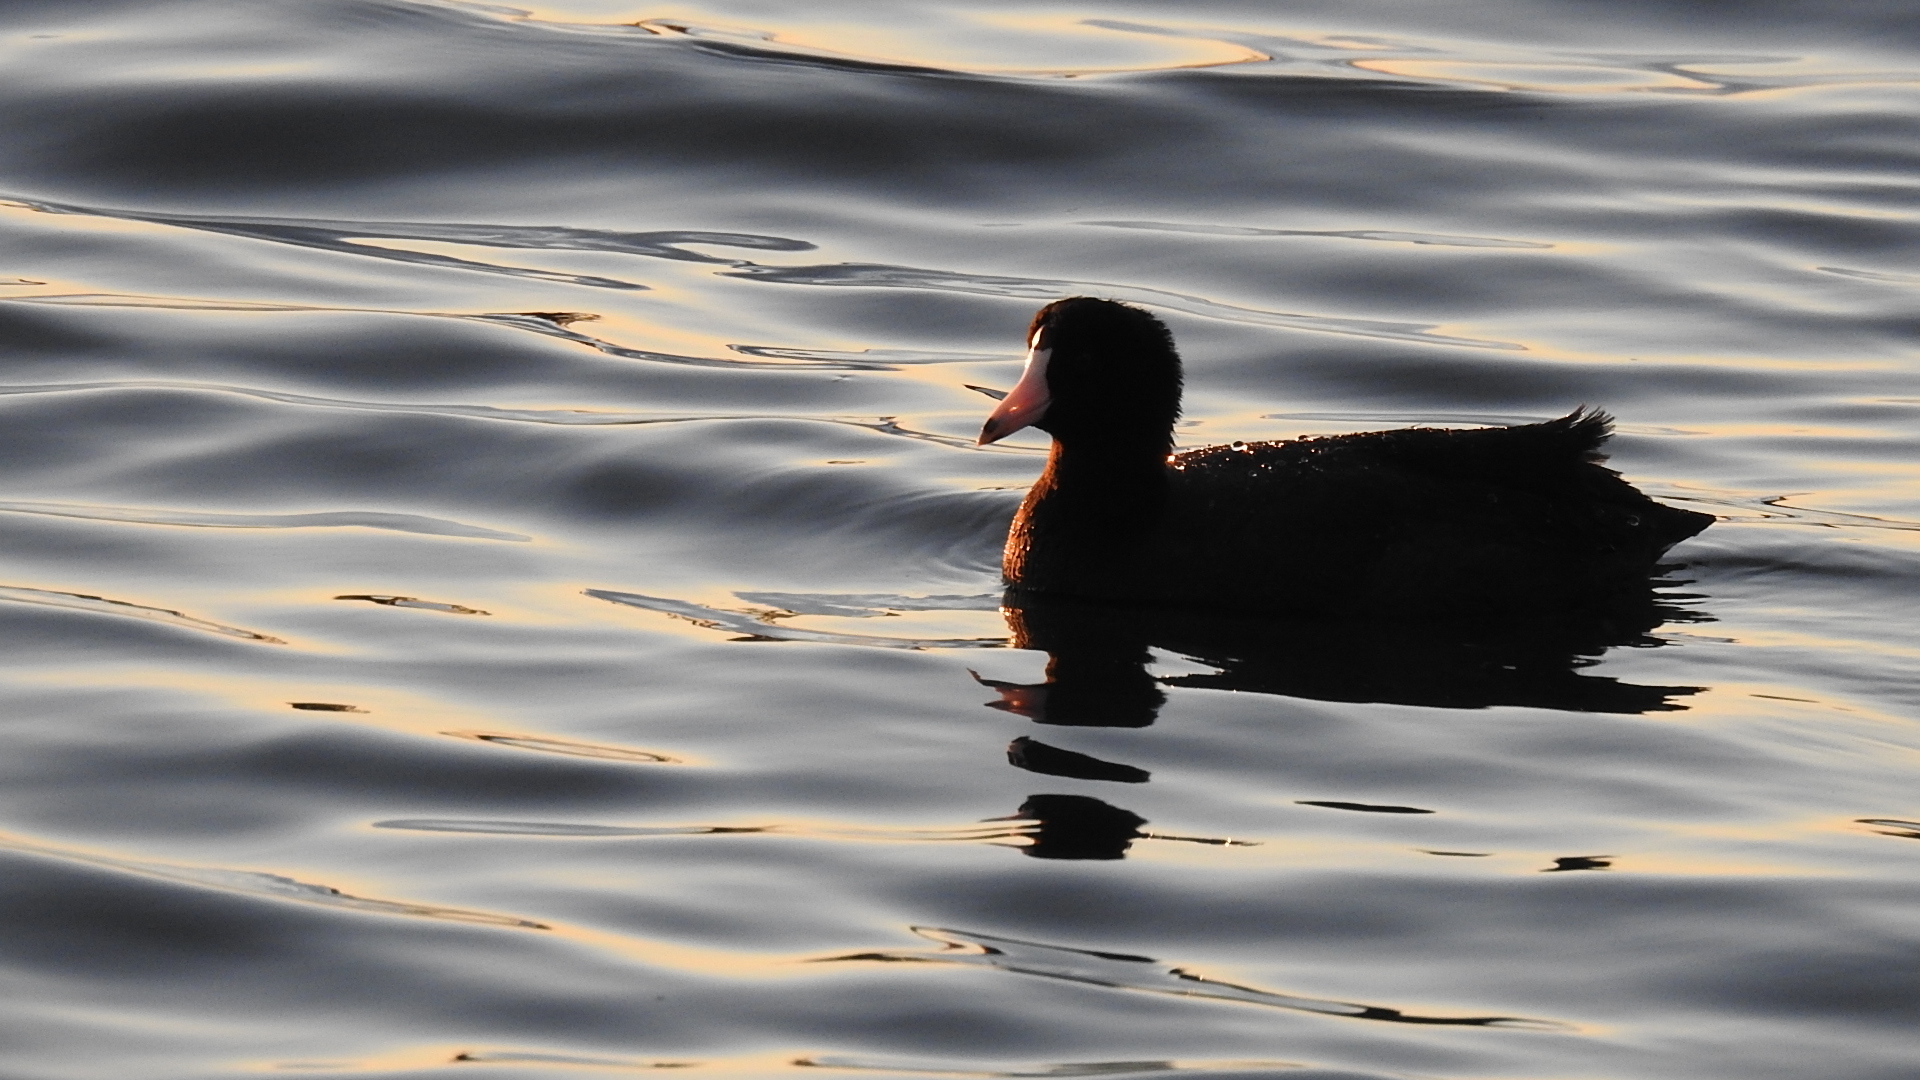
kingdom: Animalia
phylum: Chordata
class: Aves
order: Gruiformes
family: Rallidae
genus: Fulica
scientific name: Fulica americana
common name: American coot
